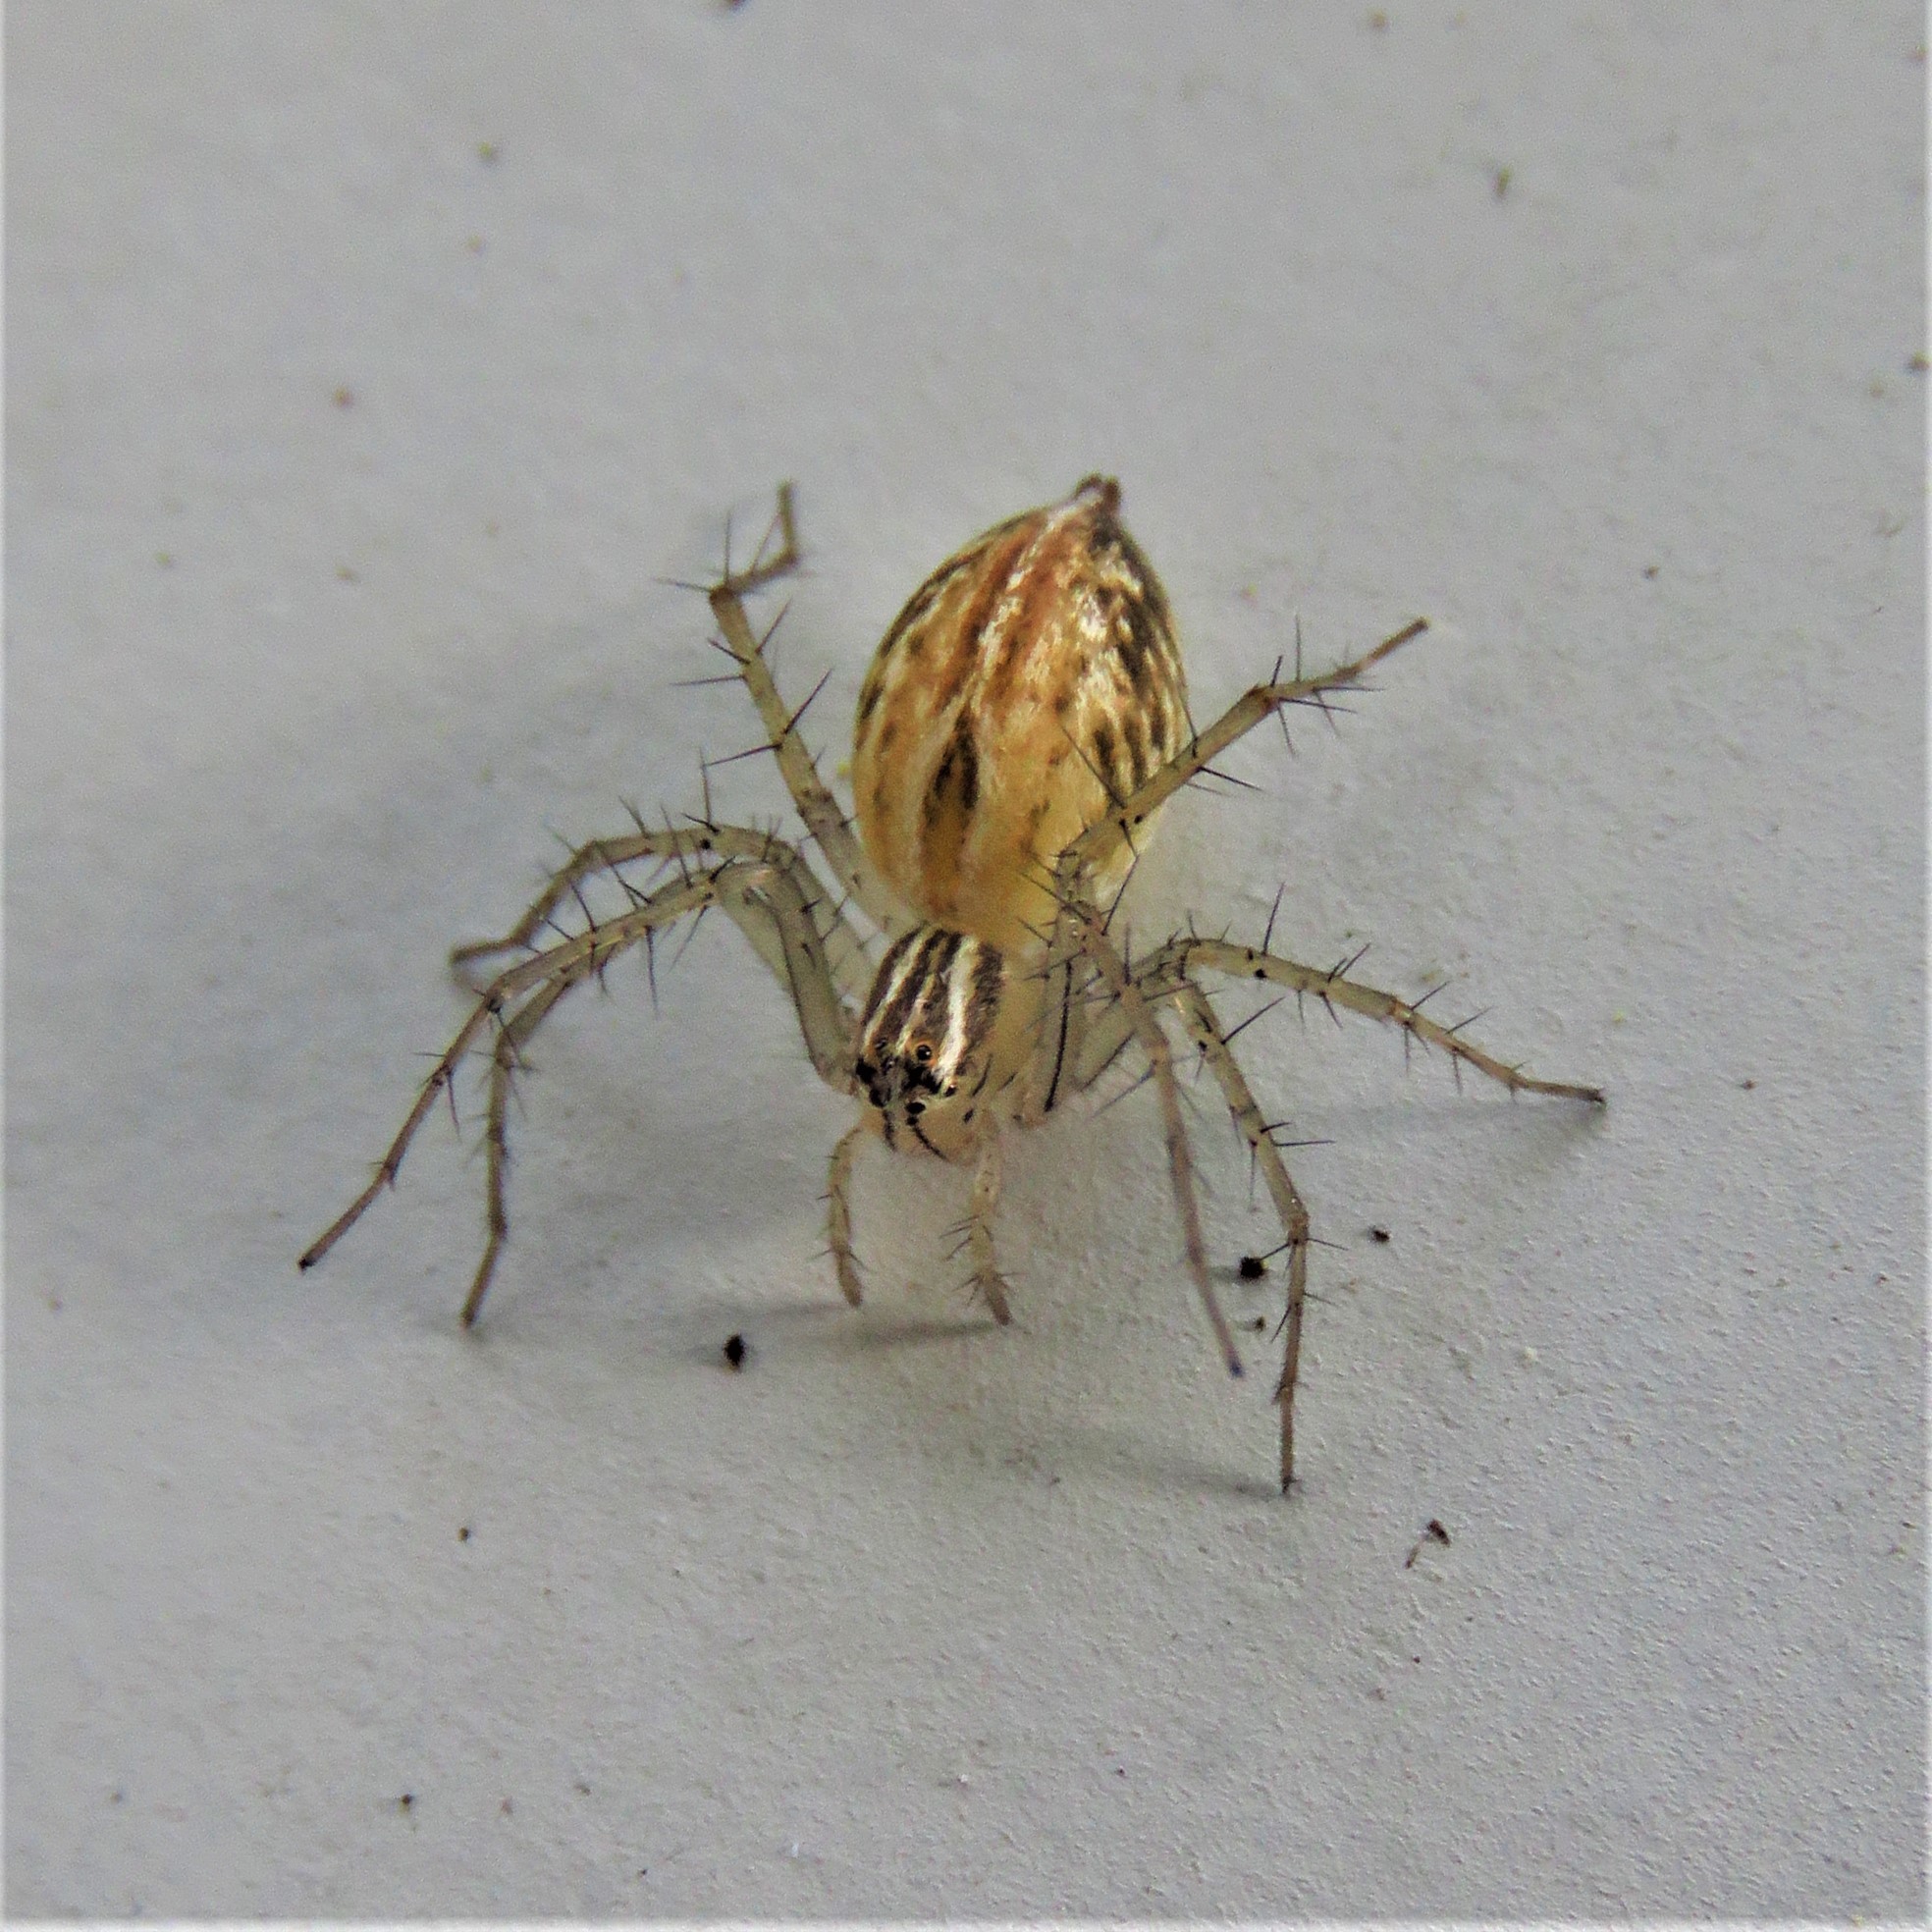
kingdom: Animalia
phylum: Arthropoda
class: Arachnida
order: Araneae
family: Oxyopidae
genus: Oxyopes
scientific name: Oxyopes salticus
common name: Lynx spiders
